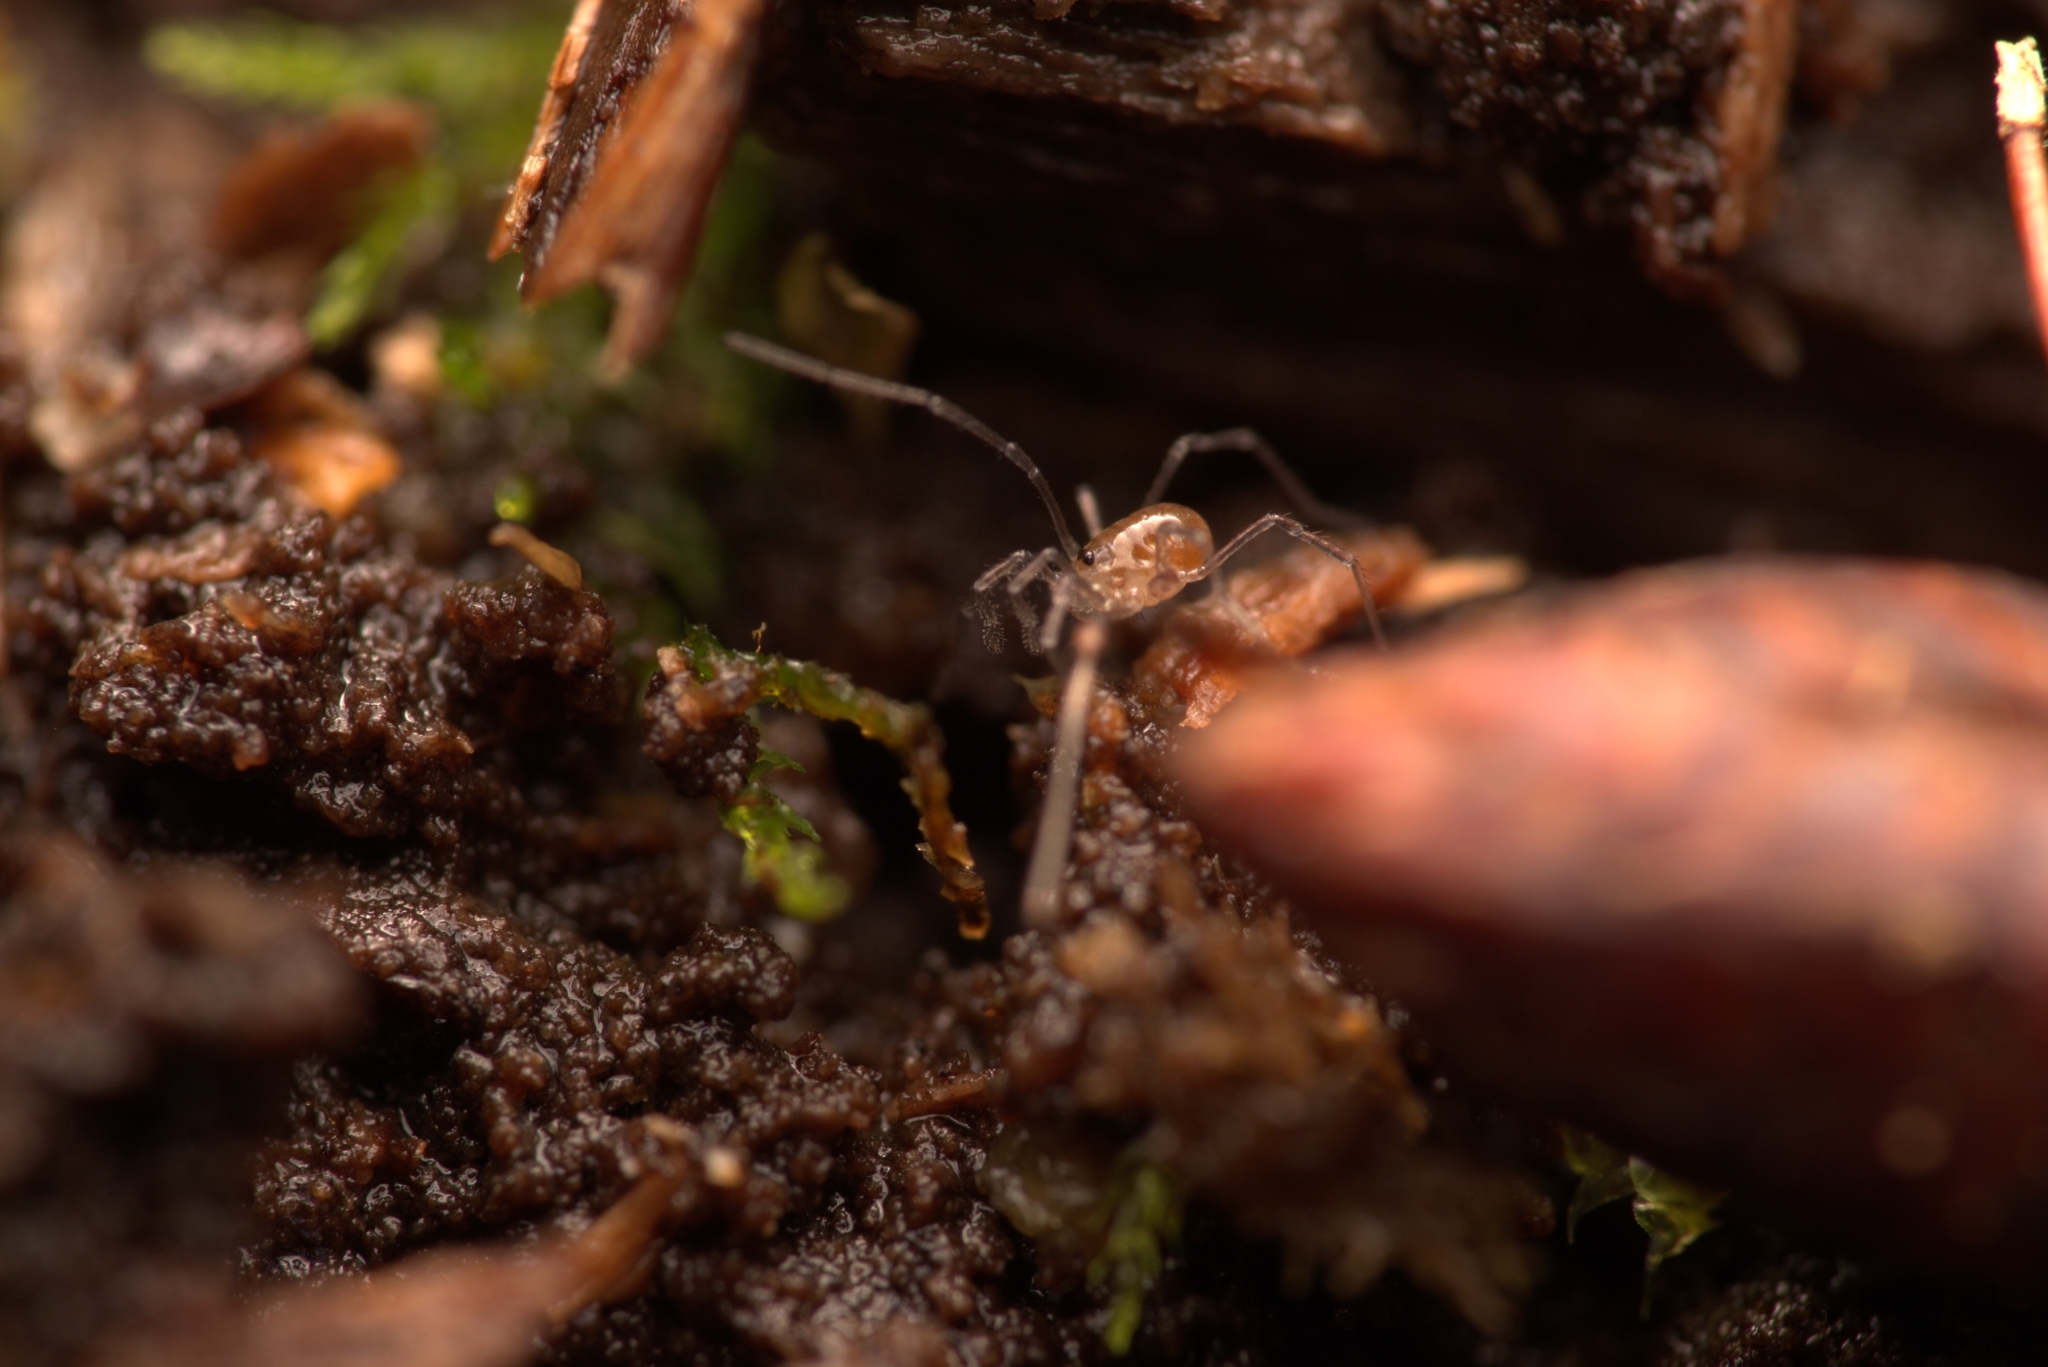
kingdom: Animalia
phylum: Arthropoda
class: Arachnida
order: Opiliones
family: Nemastomatidae
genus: Mitostoma
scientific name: Mitostoma chrysomelas
